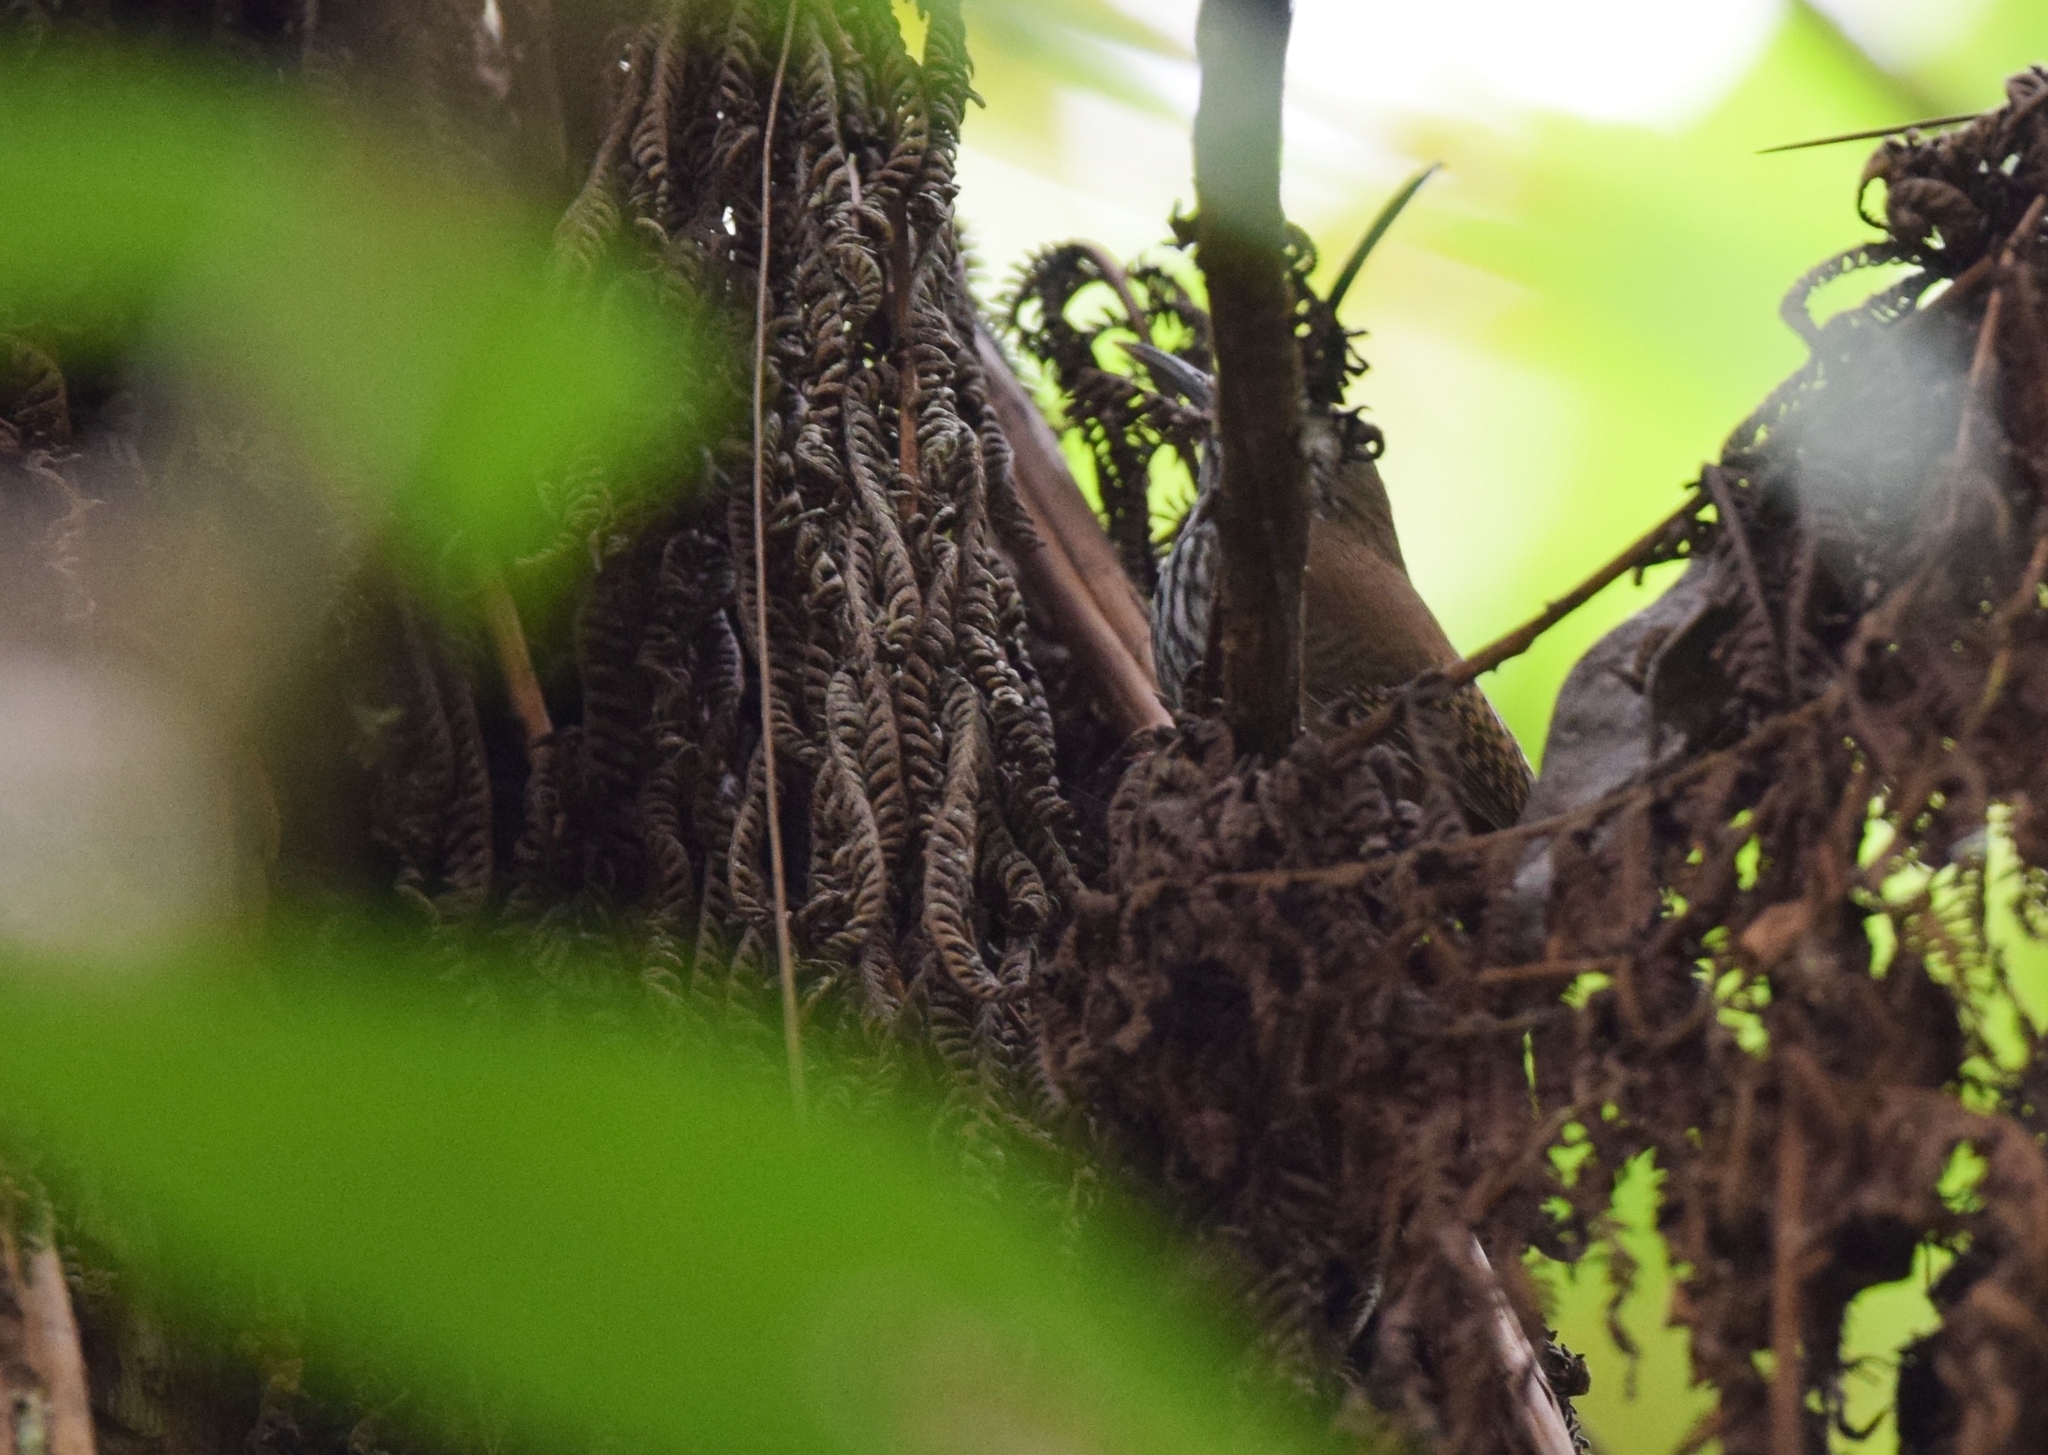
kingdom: Animalia
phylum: Chordata
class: Aves
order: Passeriformes
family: Troglodytidae
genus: Cantorchilus
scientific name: Cantorchilus thoracicus
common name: Stripe-breasted wren
